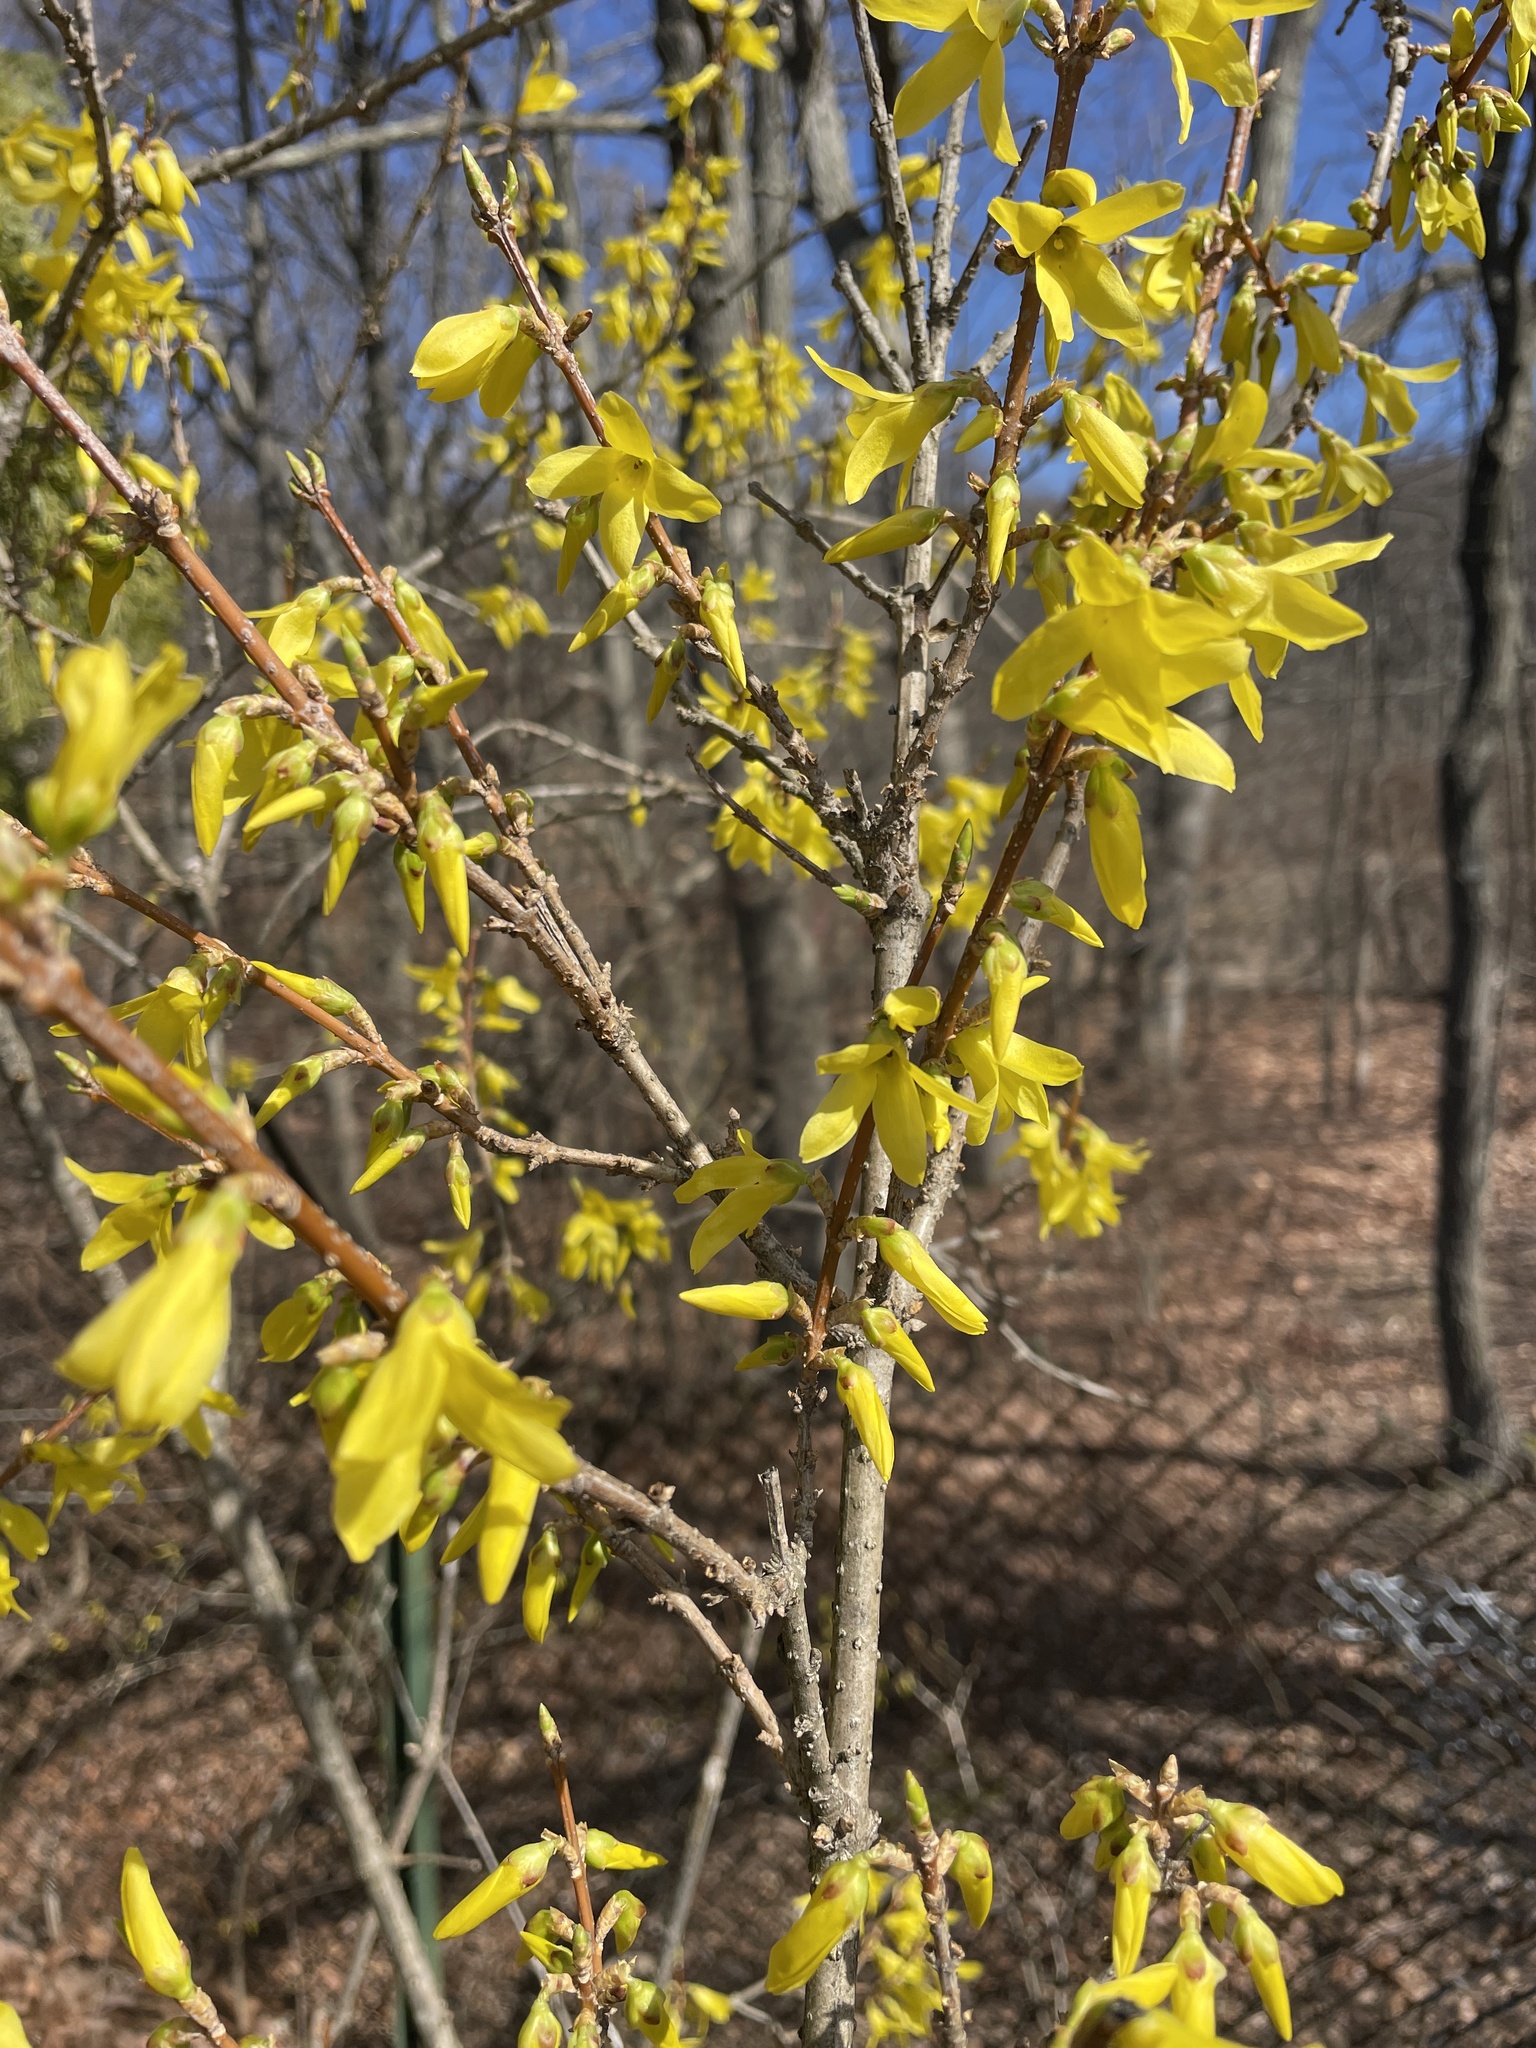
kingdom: Plantae
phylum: Tracheophyta
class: Magnoliopsida
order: Lamiales
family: Oleaceae
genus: Forsythia
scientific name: Forsythia suspensa
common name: Weeping forsythia
